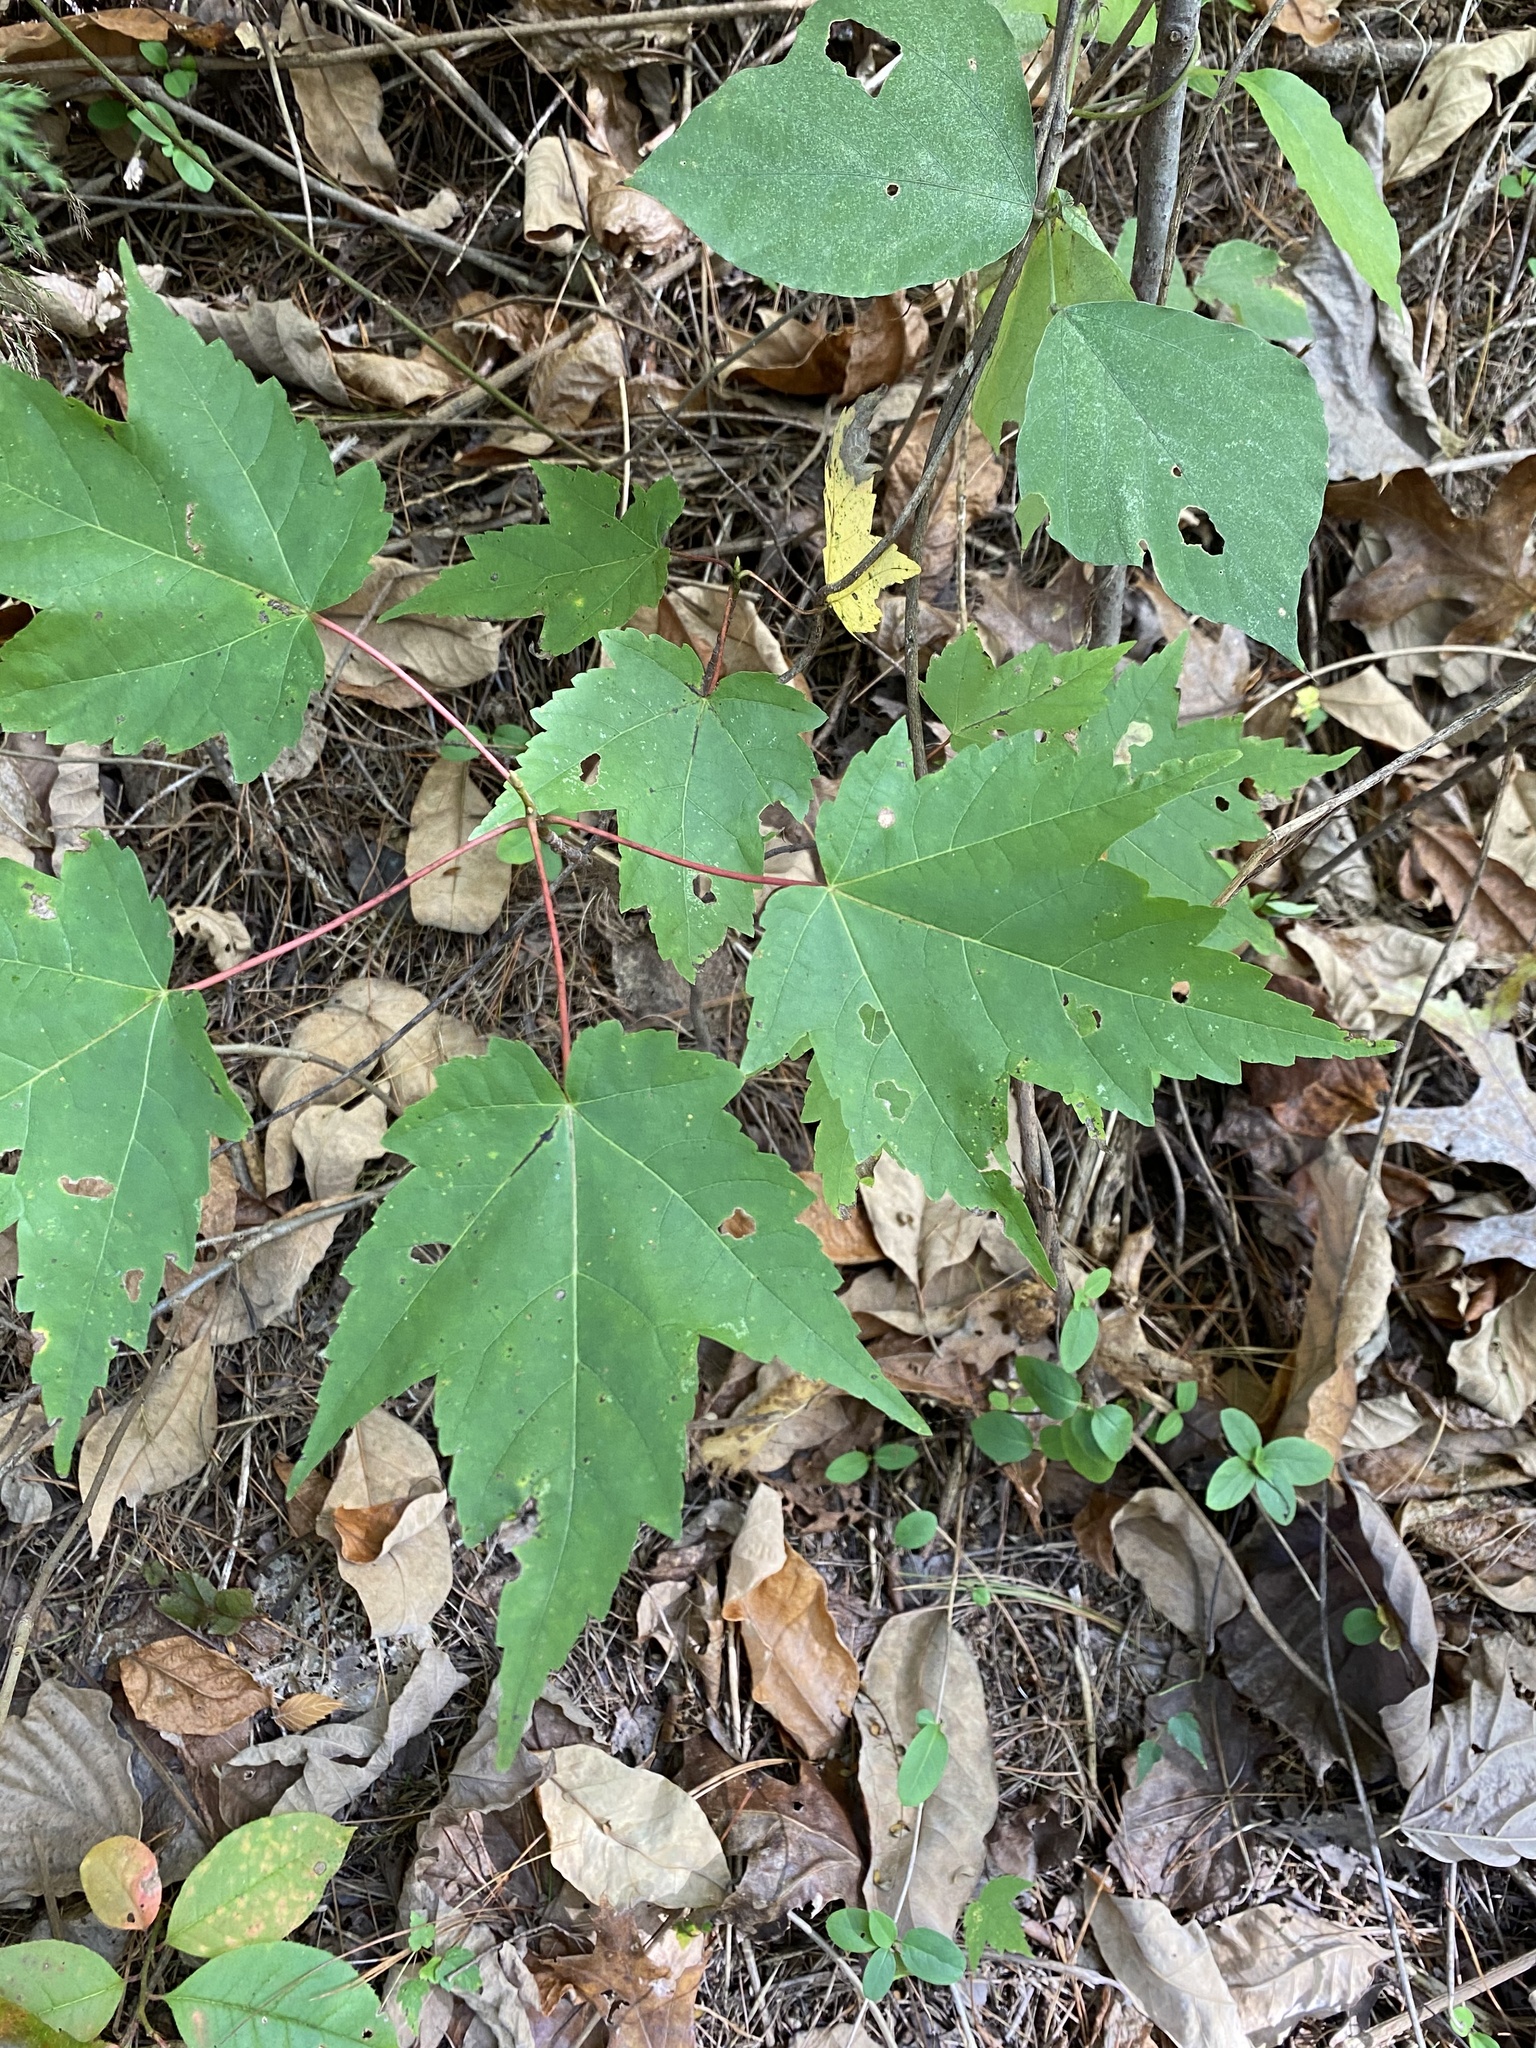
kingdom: Plantae
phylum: Tracheophyta
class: Magnoliopsida
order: Sapindales
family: Sapindaceae
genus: Acer
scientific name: Acer rubrum
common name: Red maple
